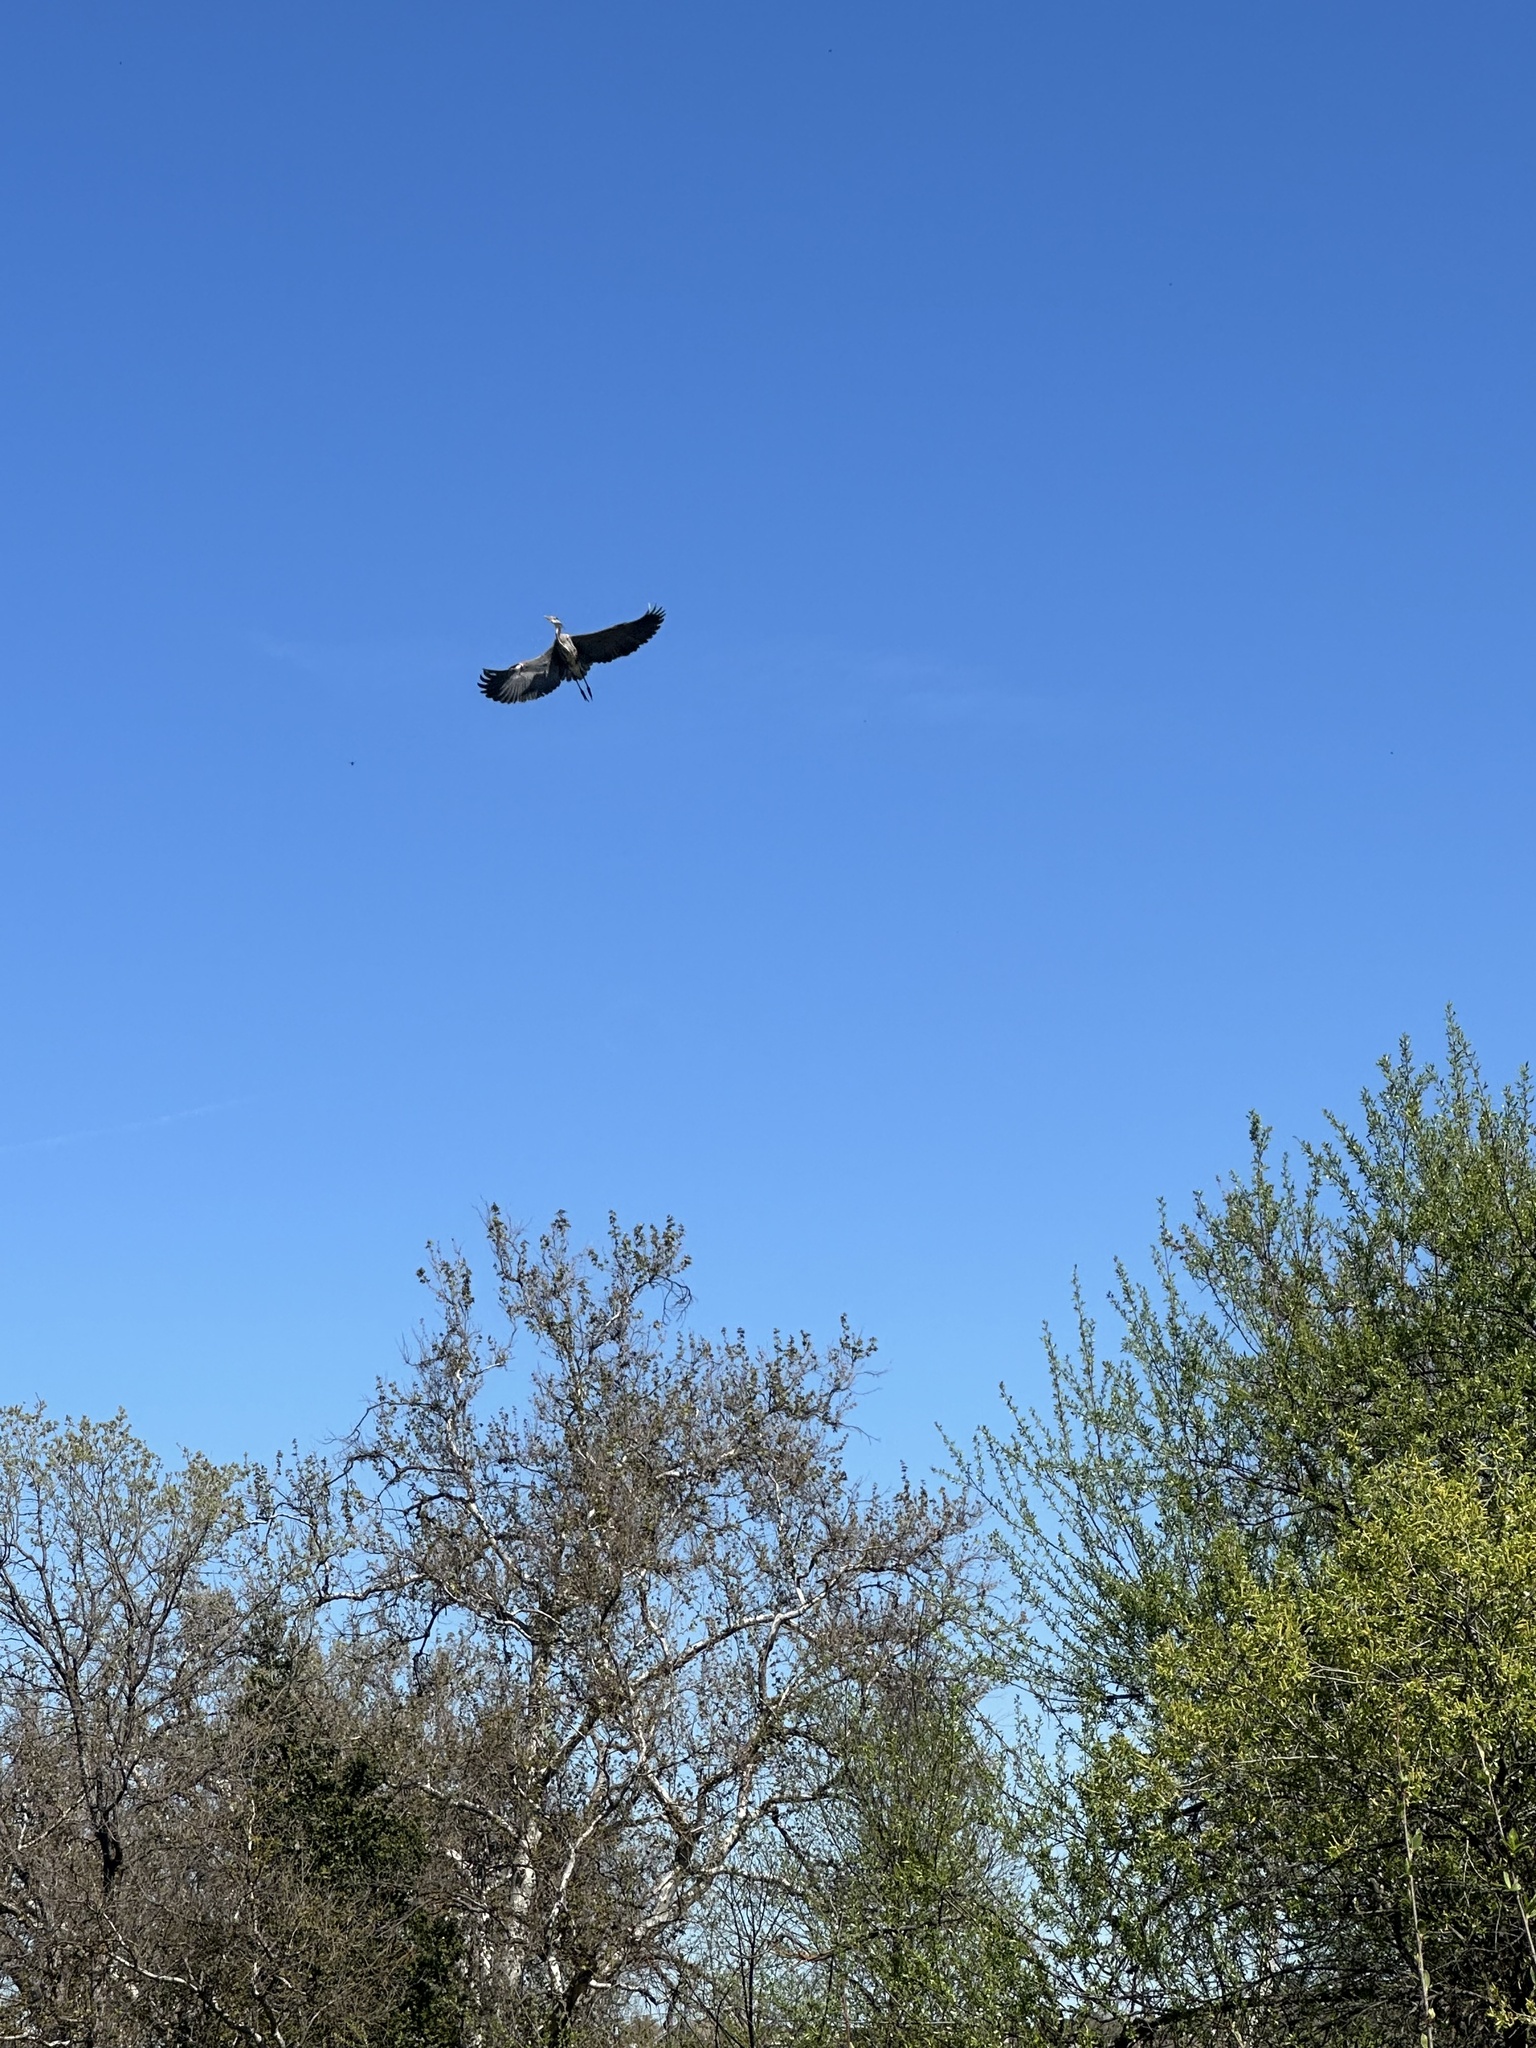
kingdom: Animalia
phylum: Chordata
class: Aves
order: Pelecaniformes
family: Ardeidae
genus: Ardea
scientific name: Ardea herodias
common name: Great blue heron
